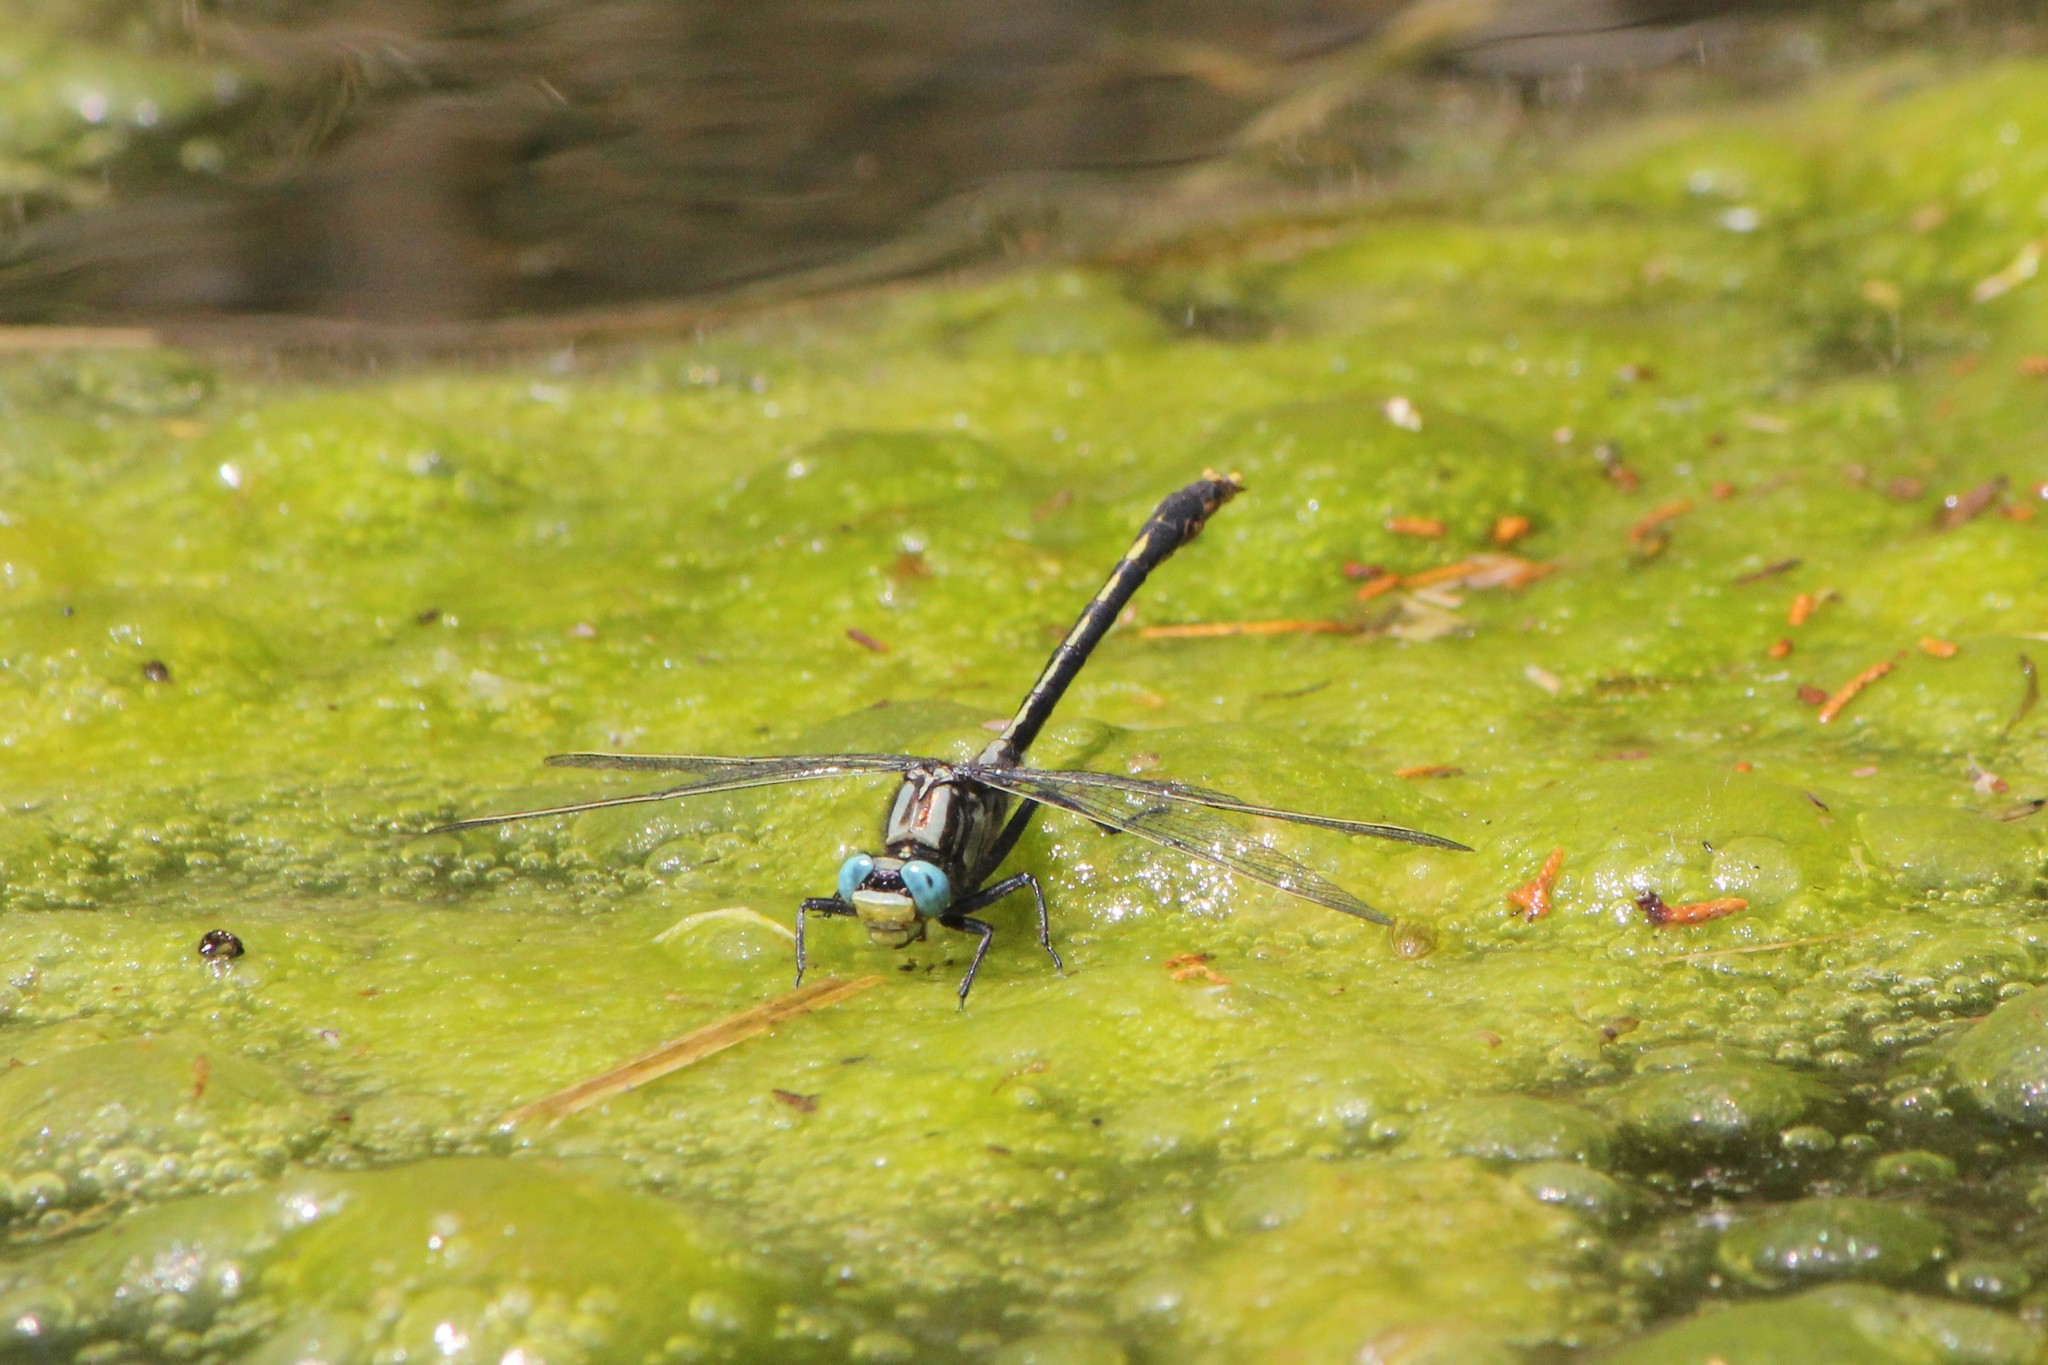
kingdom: Animalia
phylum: Arthropoda
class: Insecta
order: Odonata
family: Gomphidae
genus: Arigomphus
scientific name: Arigomphus furcifer
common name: Lilypad clubtail
